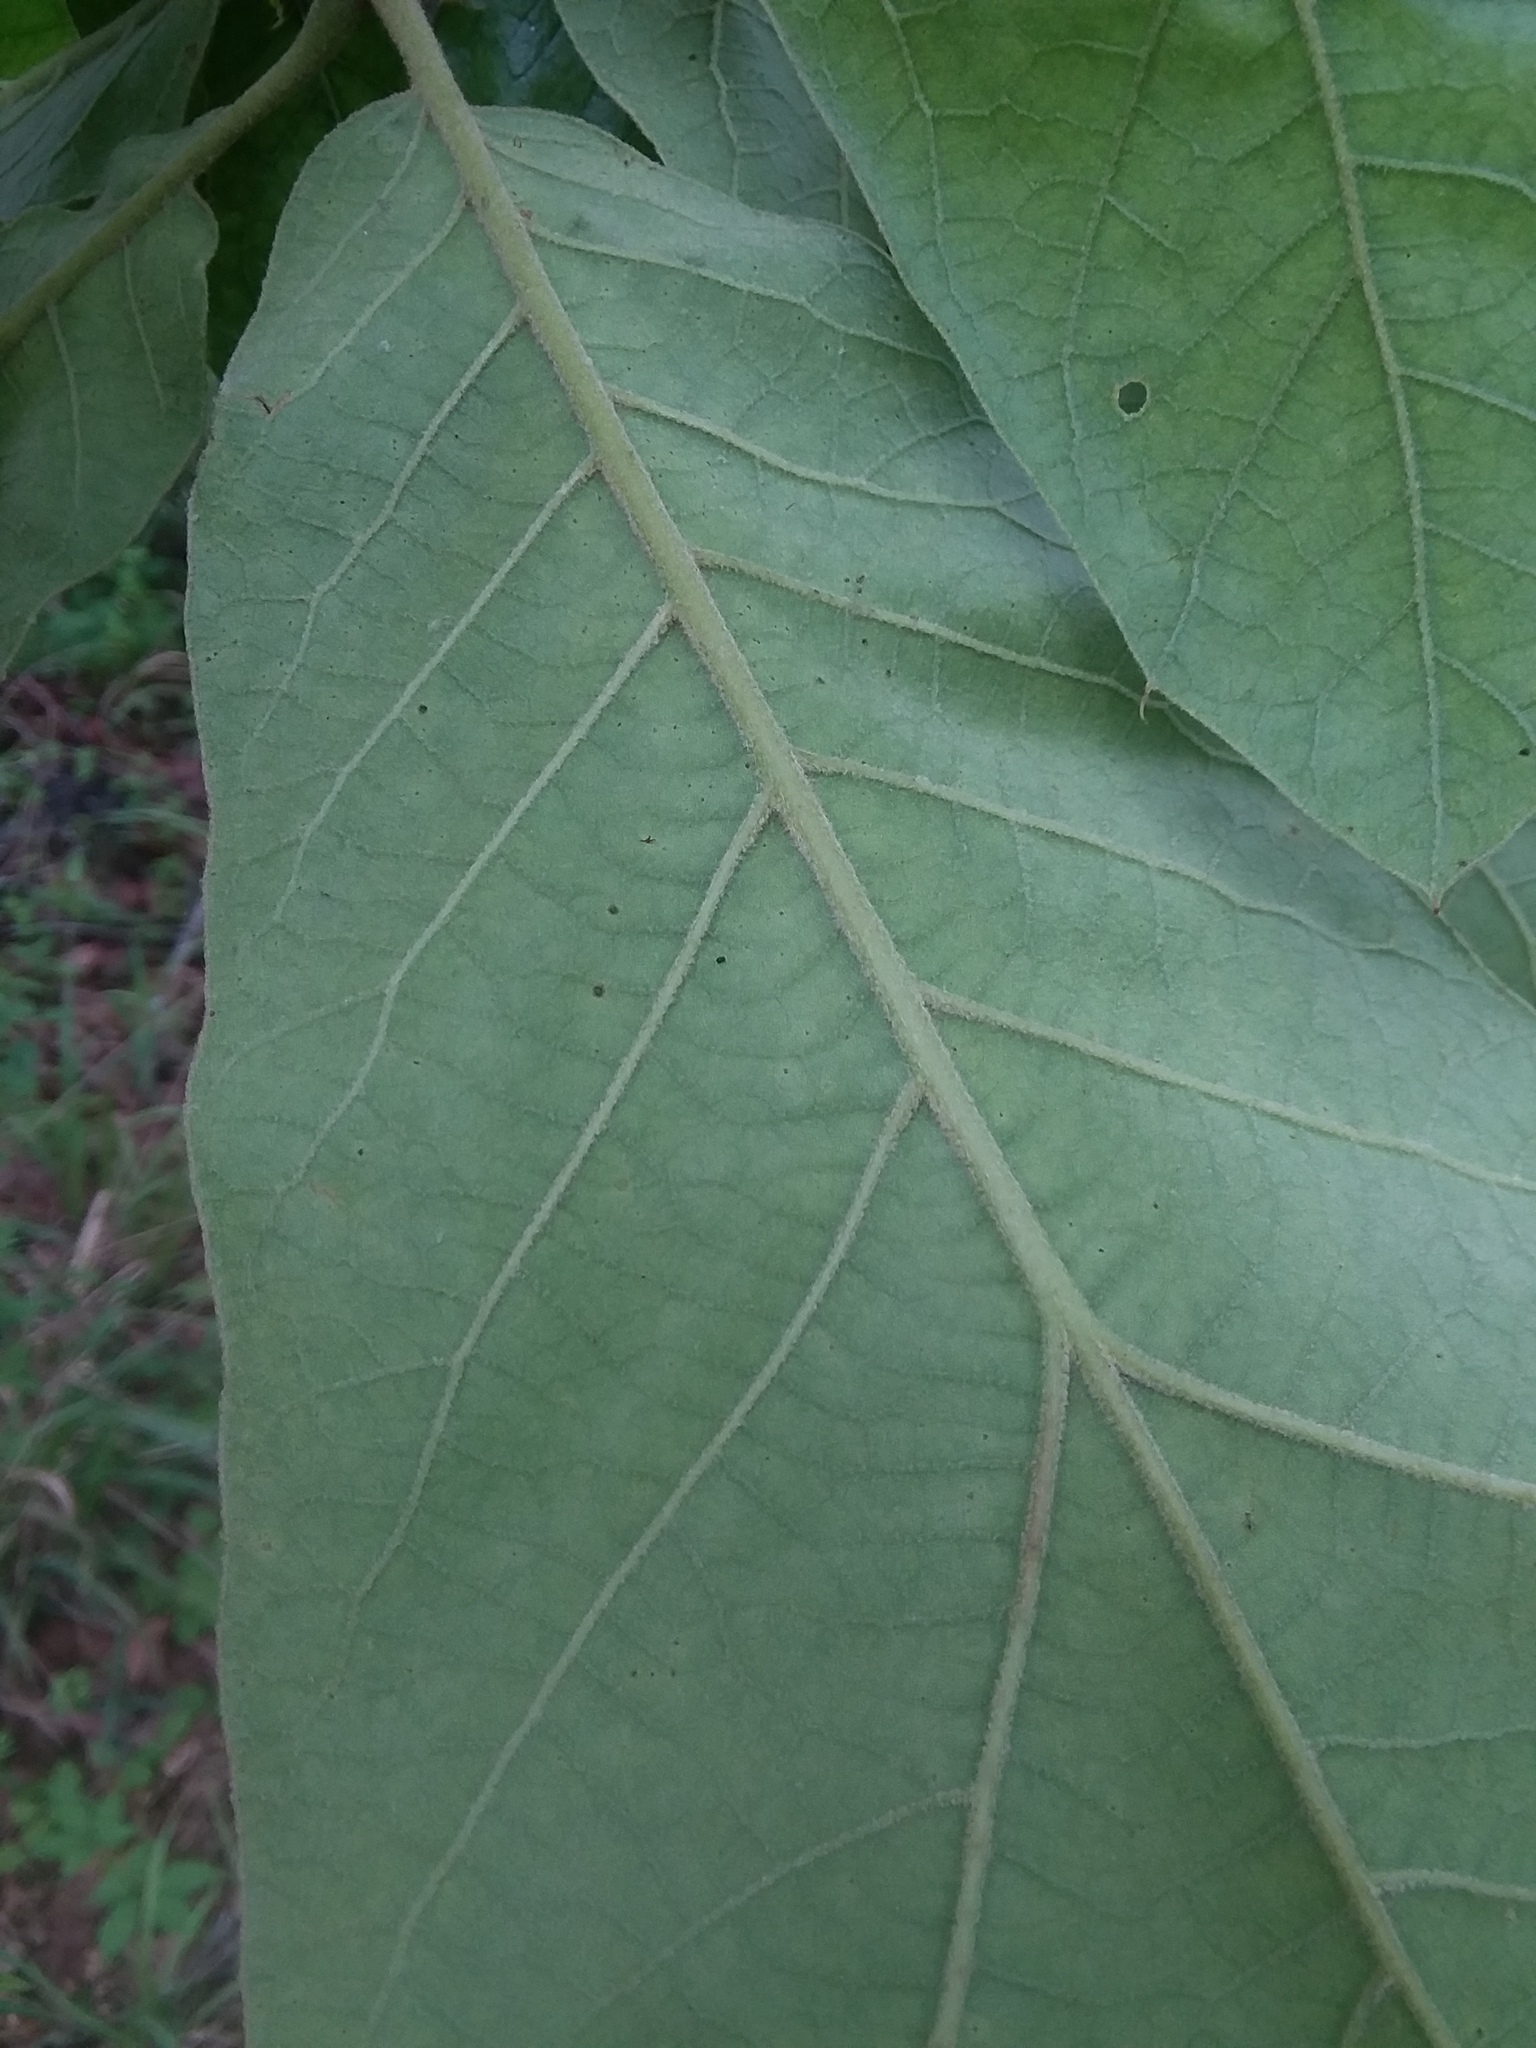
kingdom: Plantae
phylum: Tracheophyta
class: Magnoliopsida
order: Fagales
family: Fagaceae
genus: Quercus
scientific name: Quercus falcata
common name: Southern red oak
